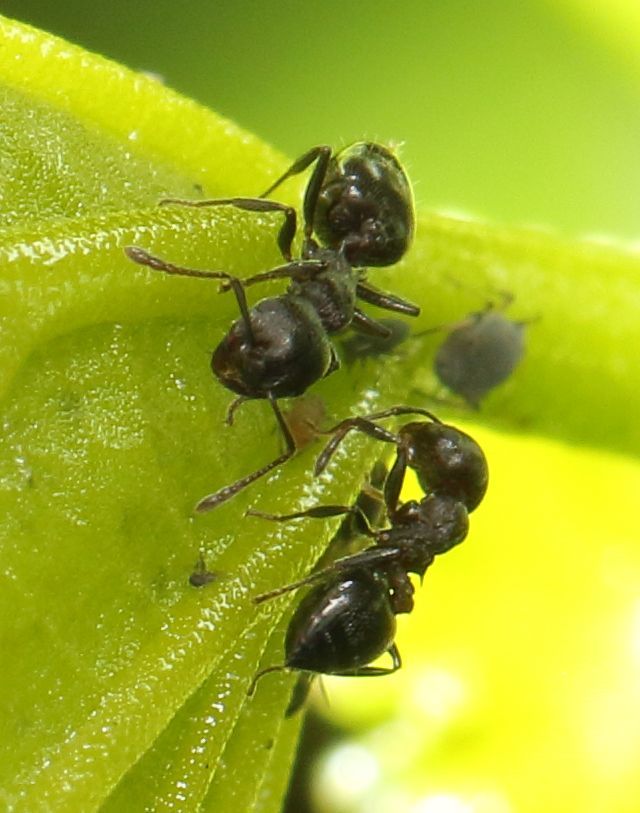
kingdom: Animalia
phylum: Arthropoda
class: Insecta
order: Hymenoptera
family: Formicidae
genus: Crematogaster
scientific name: Crematogaster monticola
